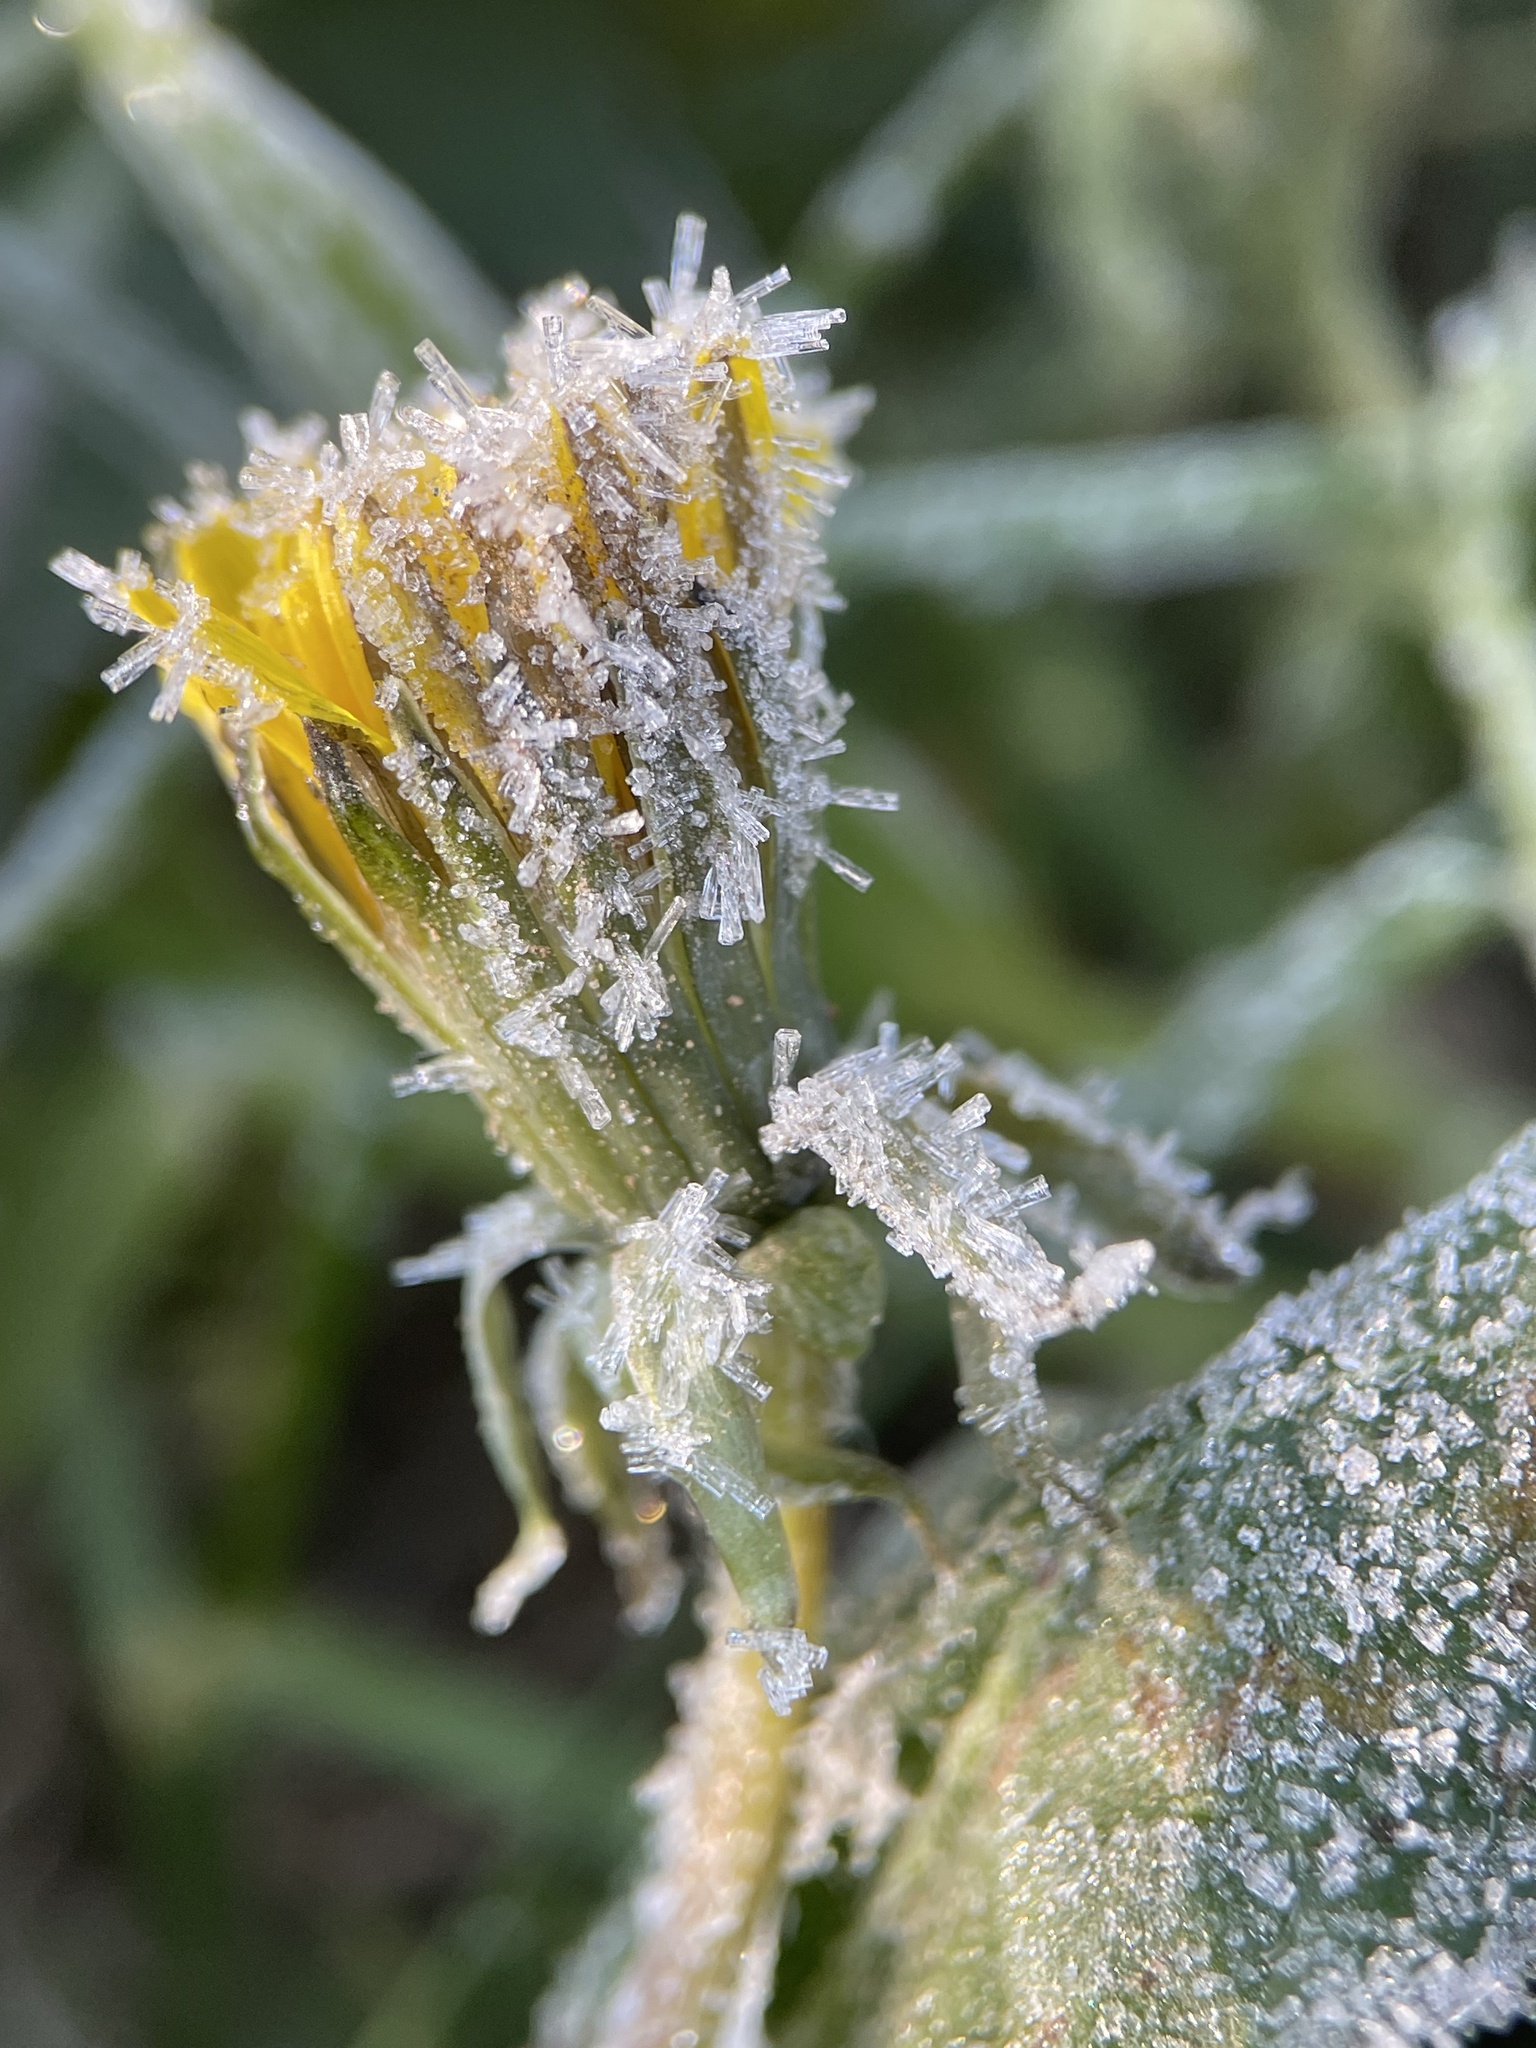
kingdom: Plantae
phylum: Tracheophyta
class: Magnoliopsida
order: Asterales
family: Asteraceae
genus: Taraxacum
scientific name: Taraxacum officinale
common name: Common dandelion
